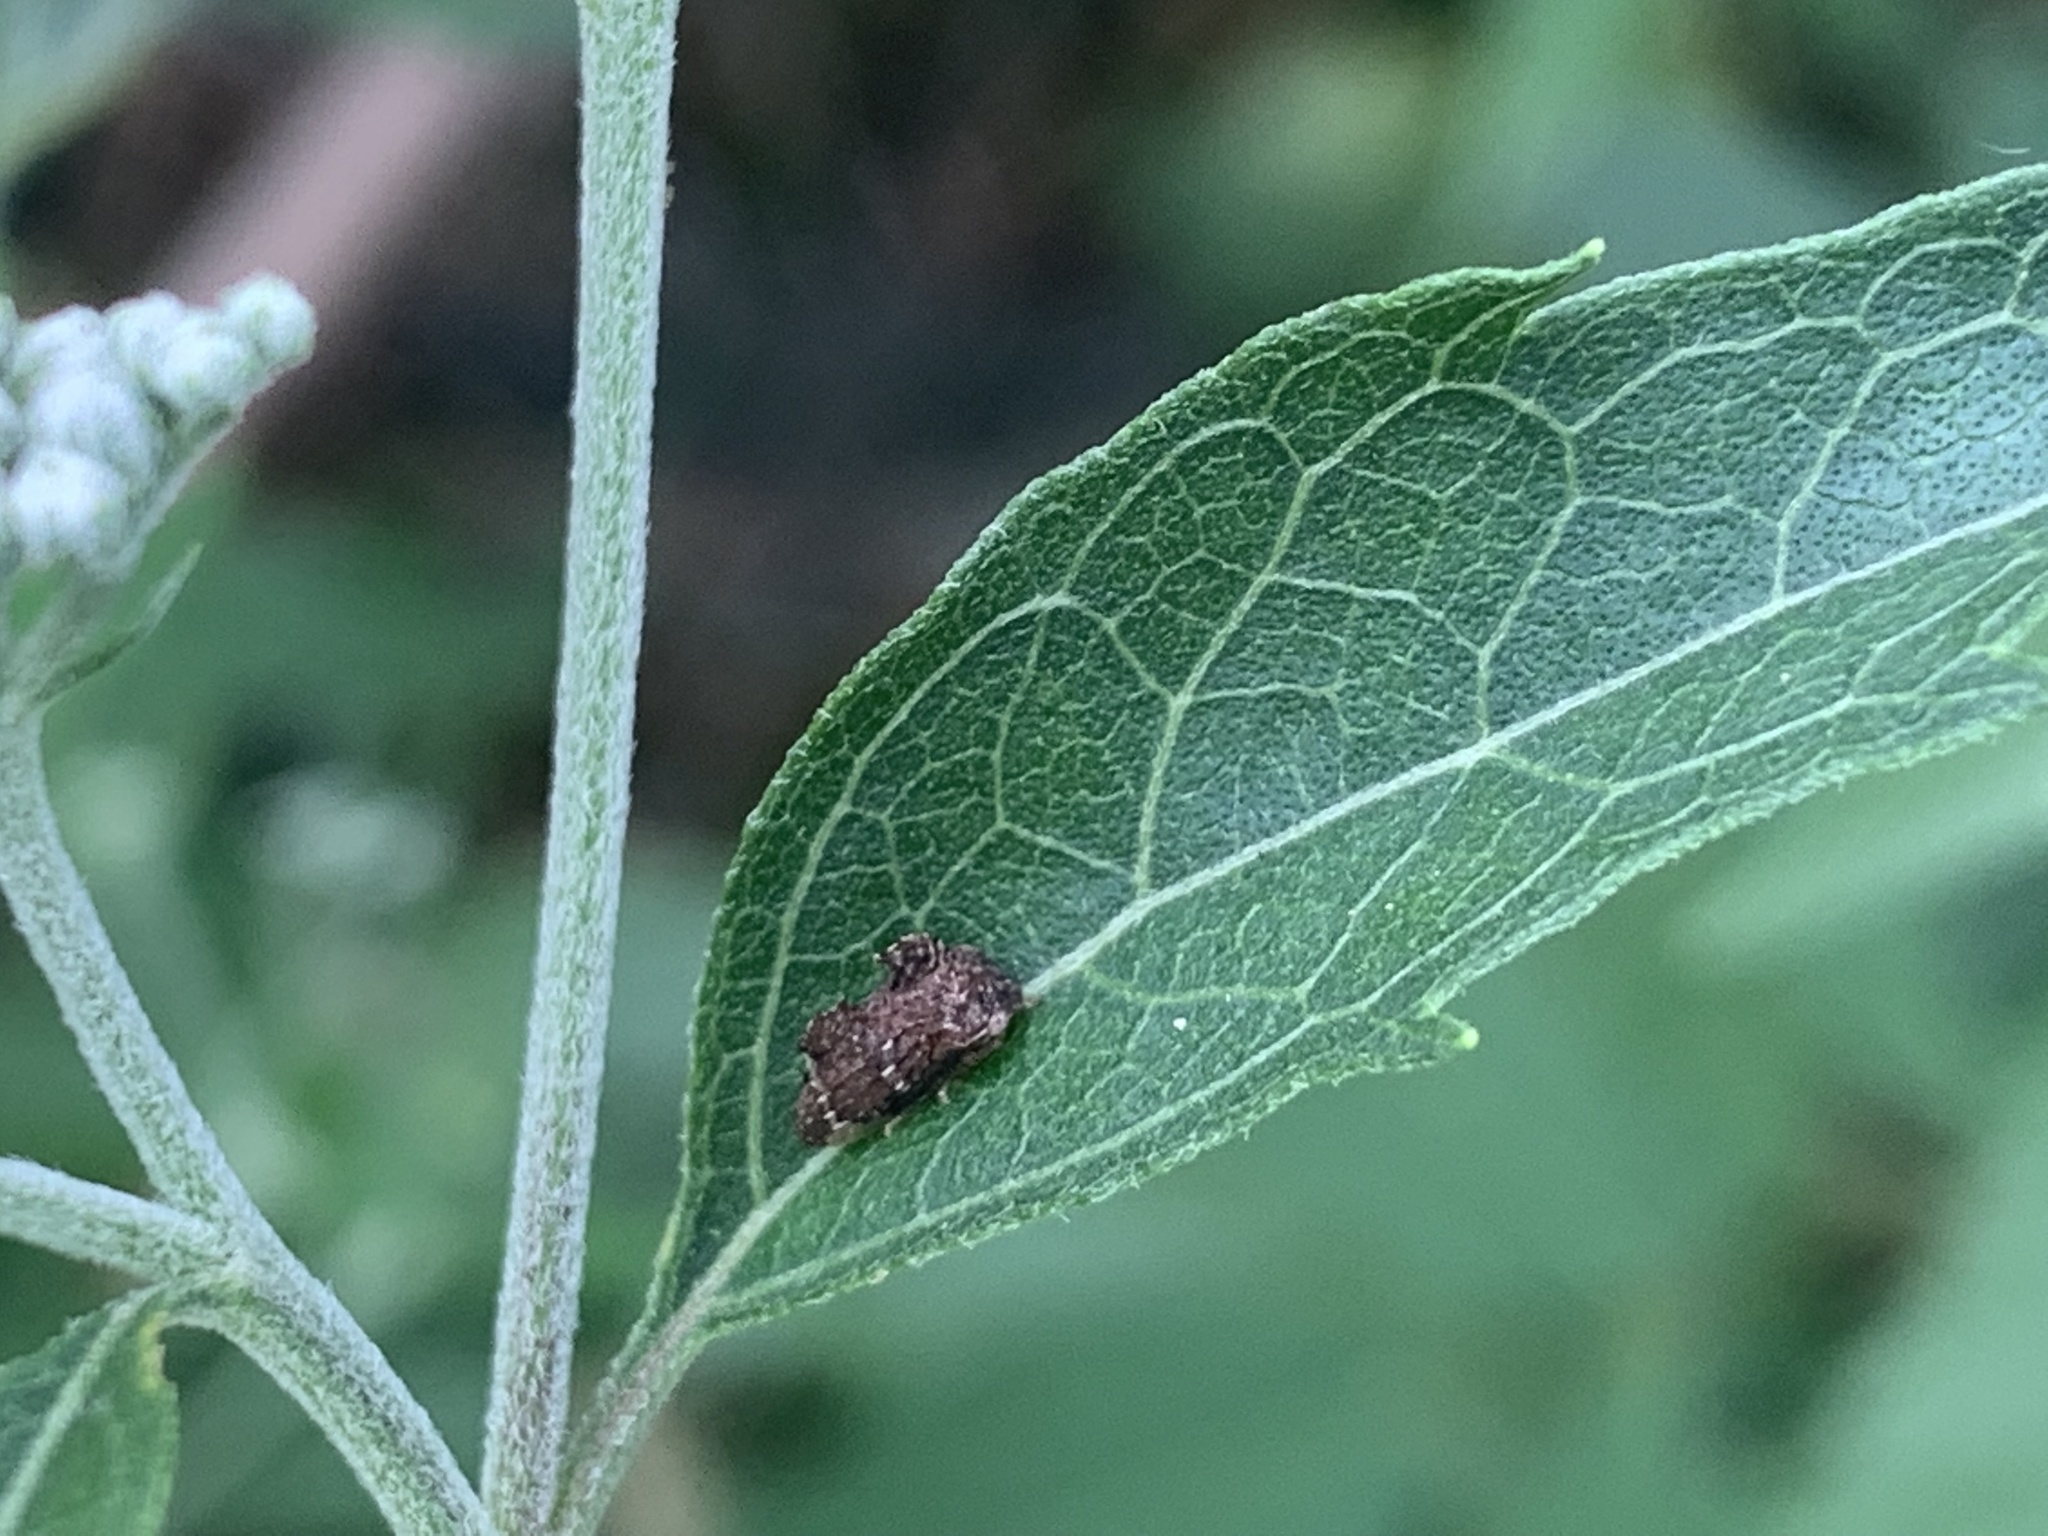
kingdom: Animalia
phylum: Arthropoda
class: Insecta
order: Hemiptera
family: Membracidae
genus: Entylia
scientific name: Entylia carinata
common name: Keeled treehopper
